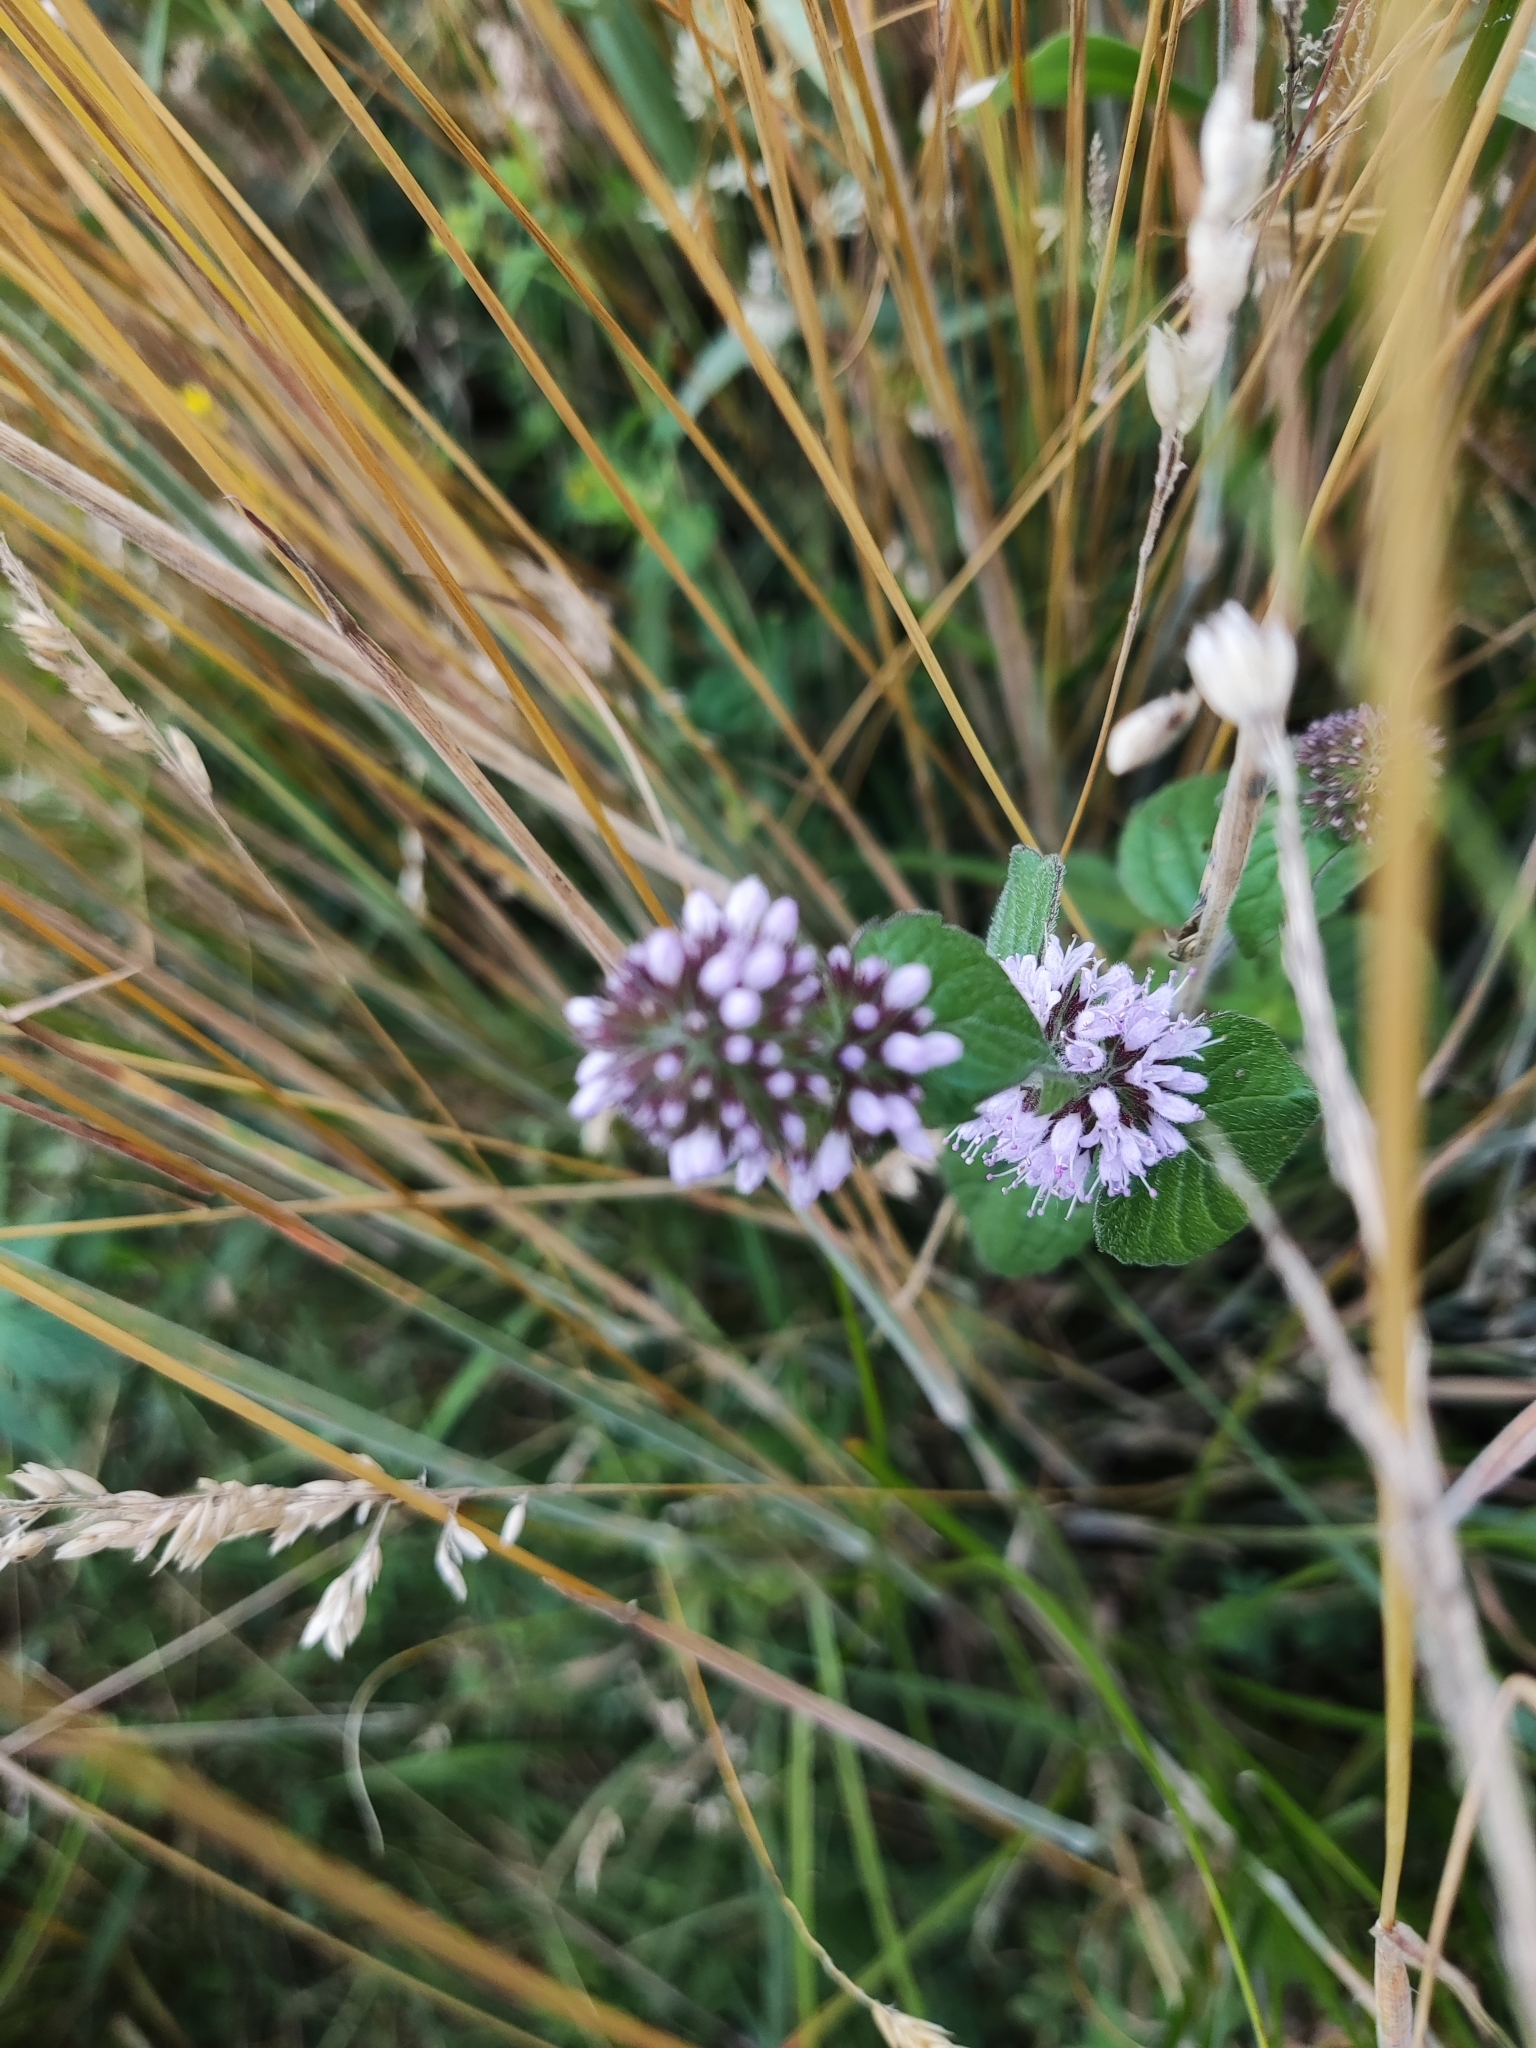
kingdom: Plantae
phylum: Tracheophyta
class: Magnoliopsida
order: Lamiales
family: Lamiaceae
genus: Mentha
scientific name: Mentha aquatica
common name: Water mint
